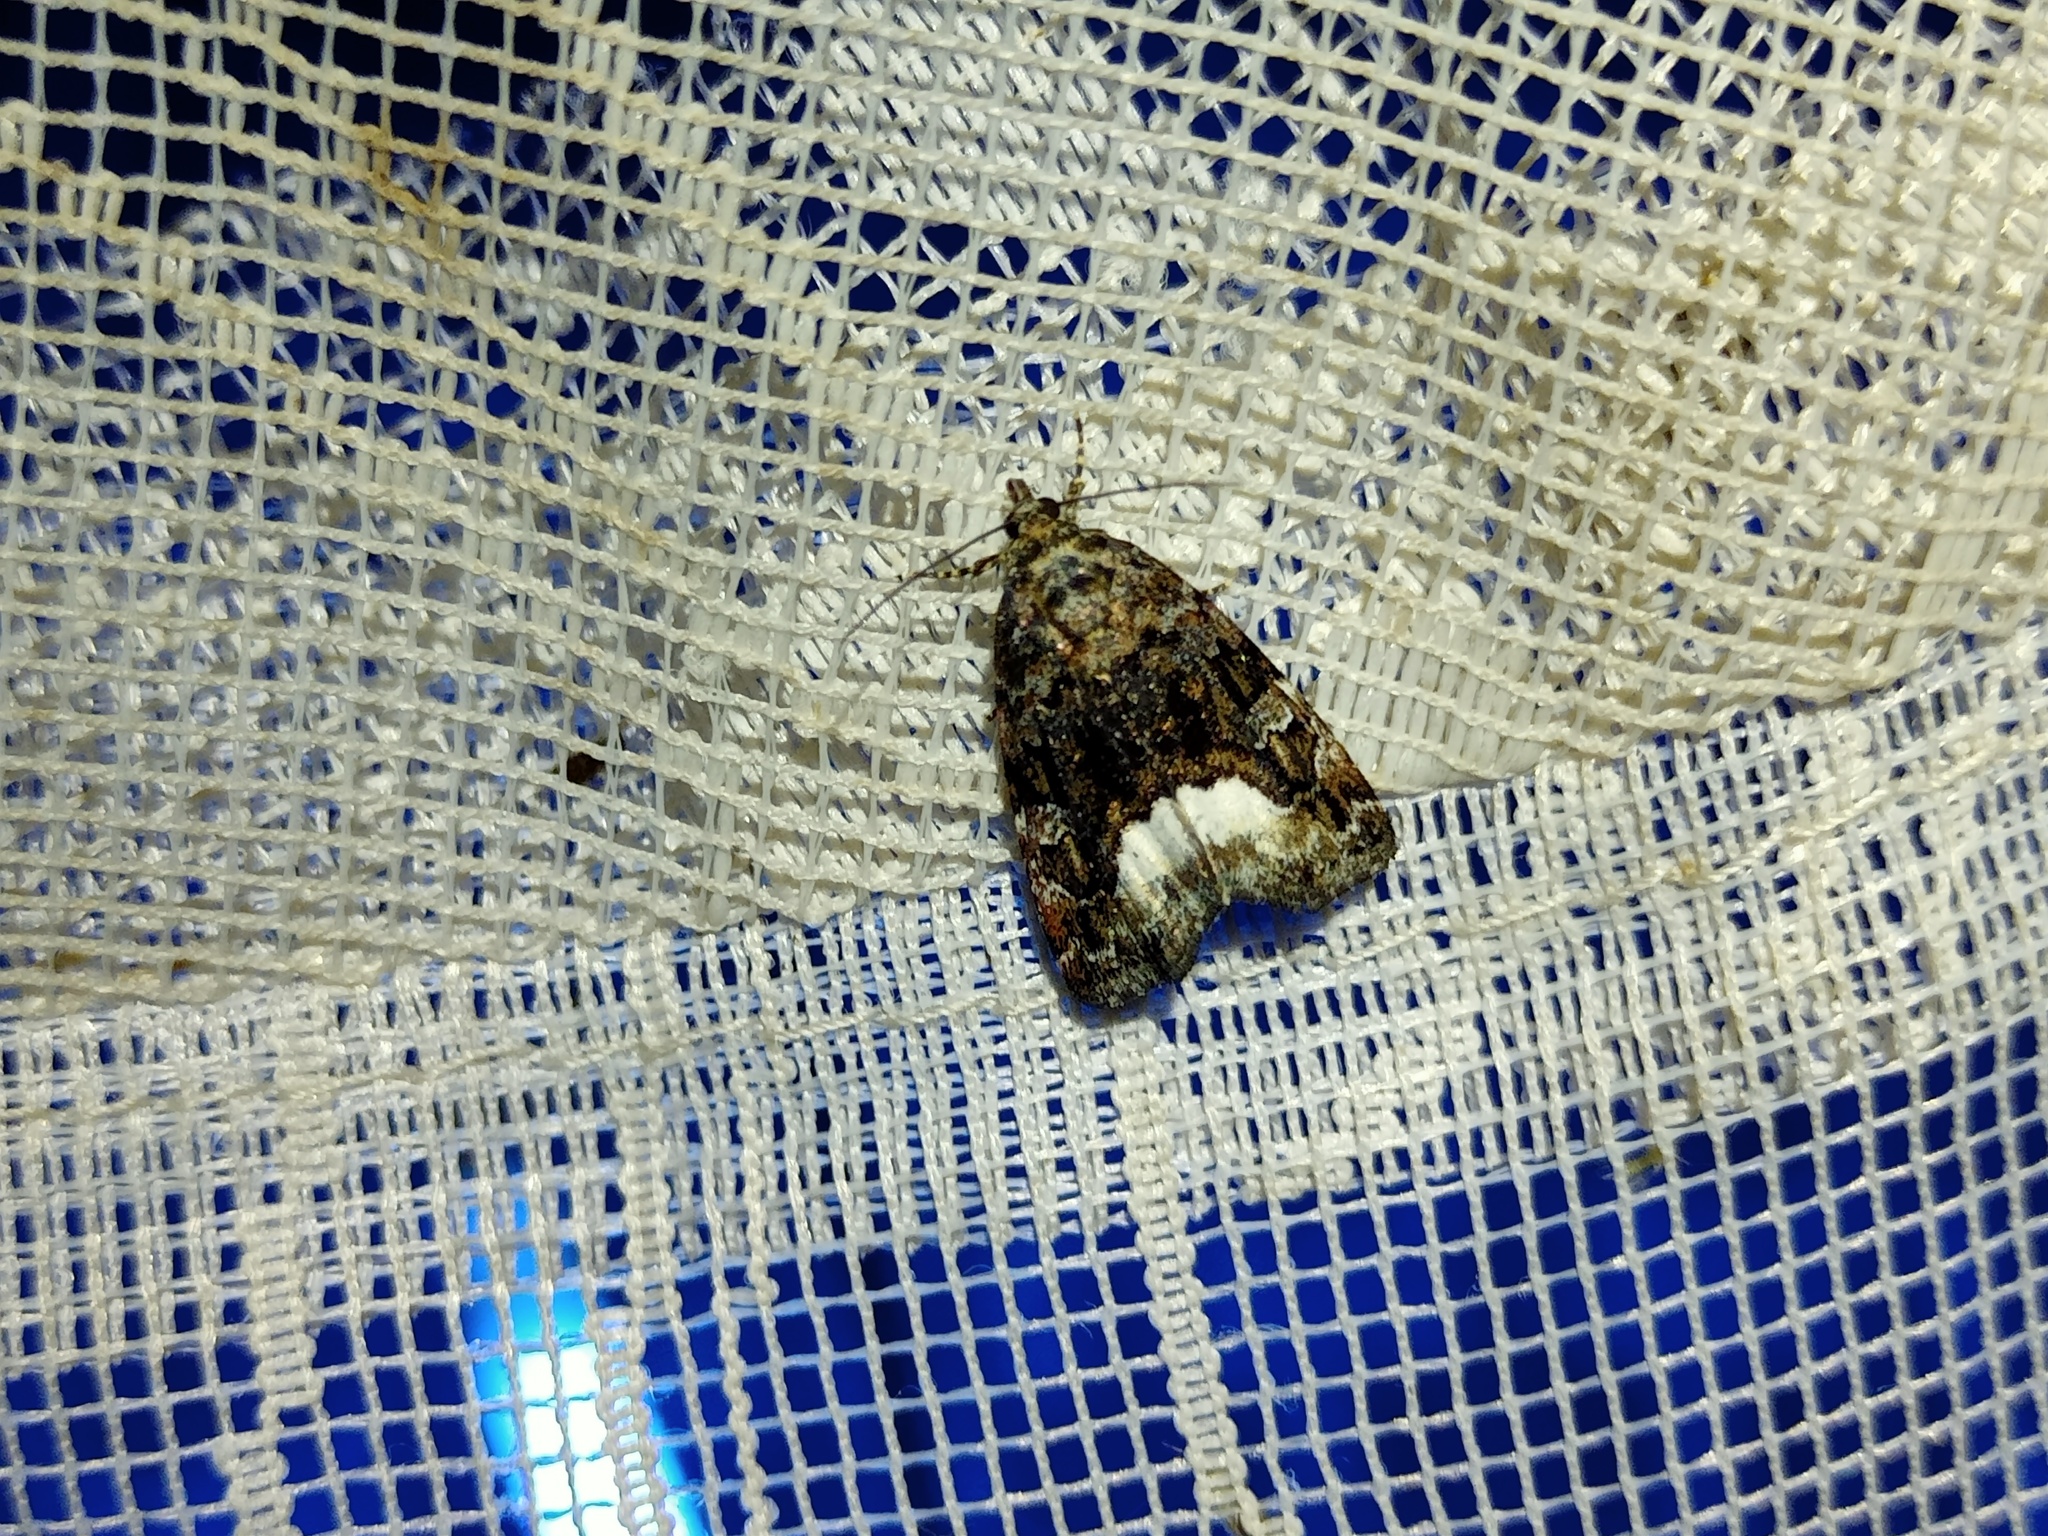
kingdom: Animalia
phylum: Arthropoda
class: Insecta
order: Lepidoptera
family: Noctuidae
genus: Deltote
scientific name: Deltote pygarga
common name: Marbled white spot
